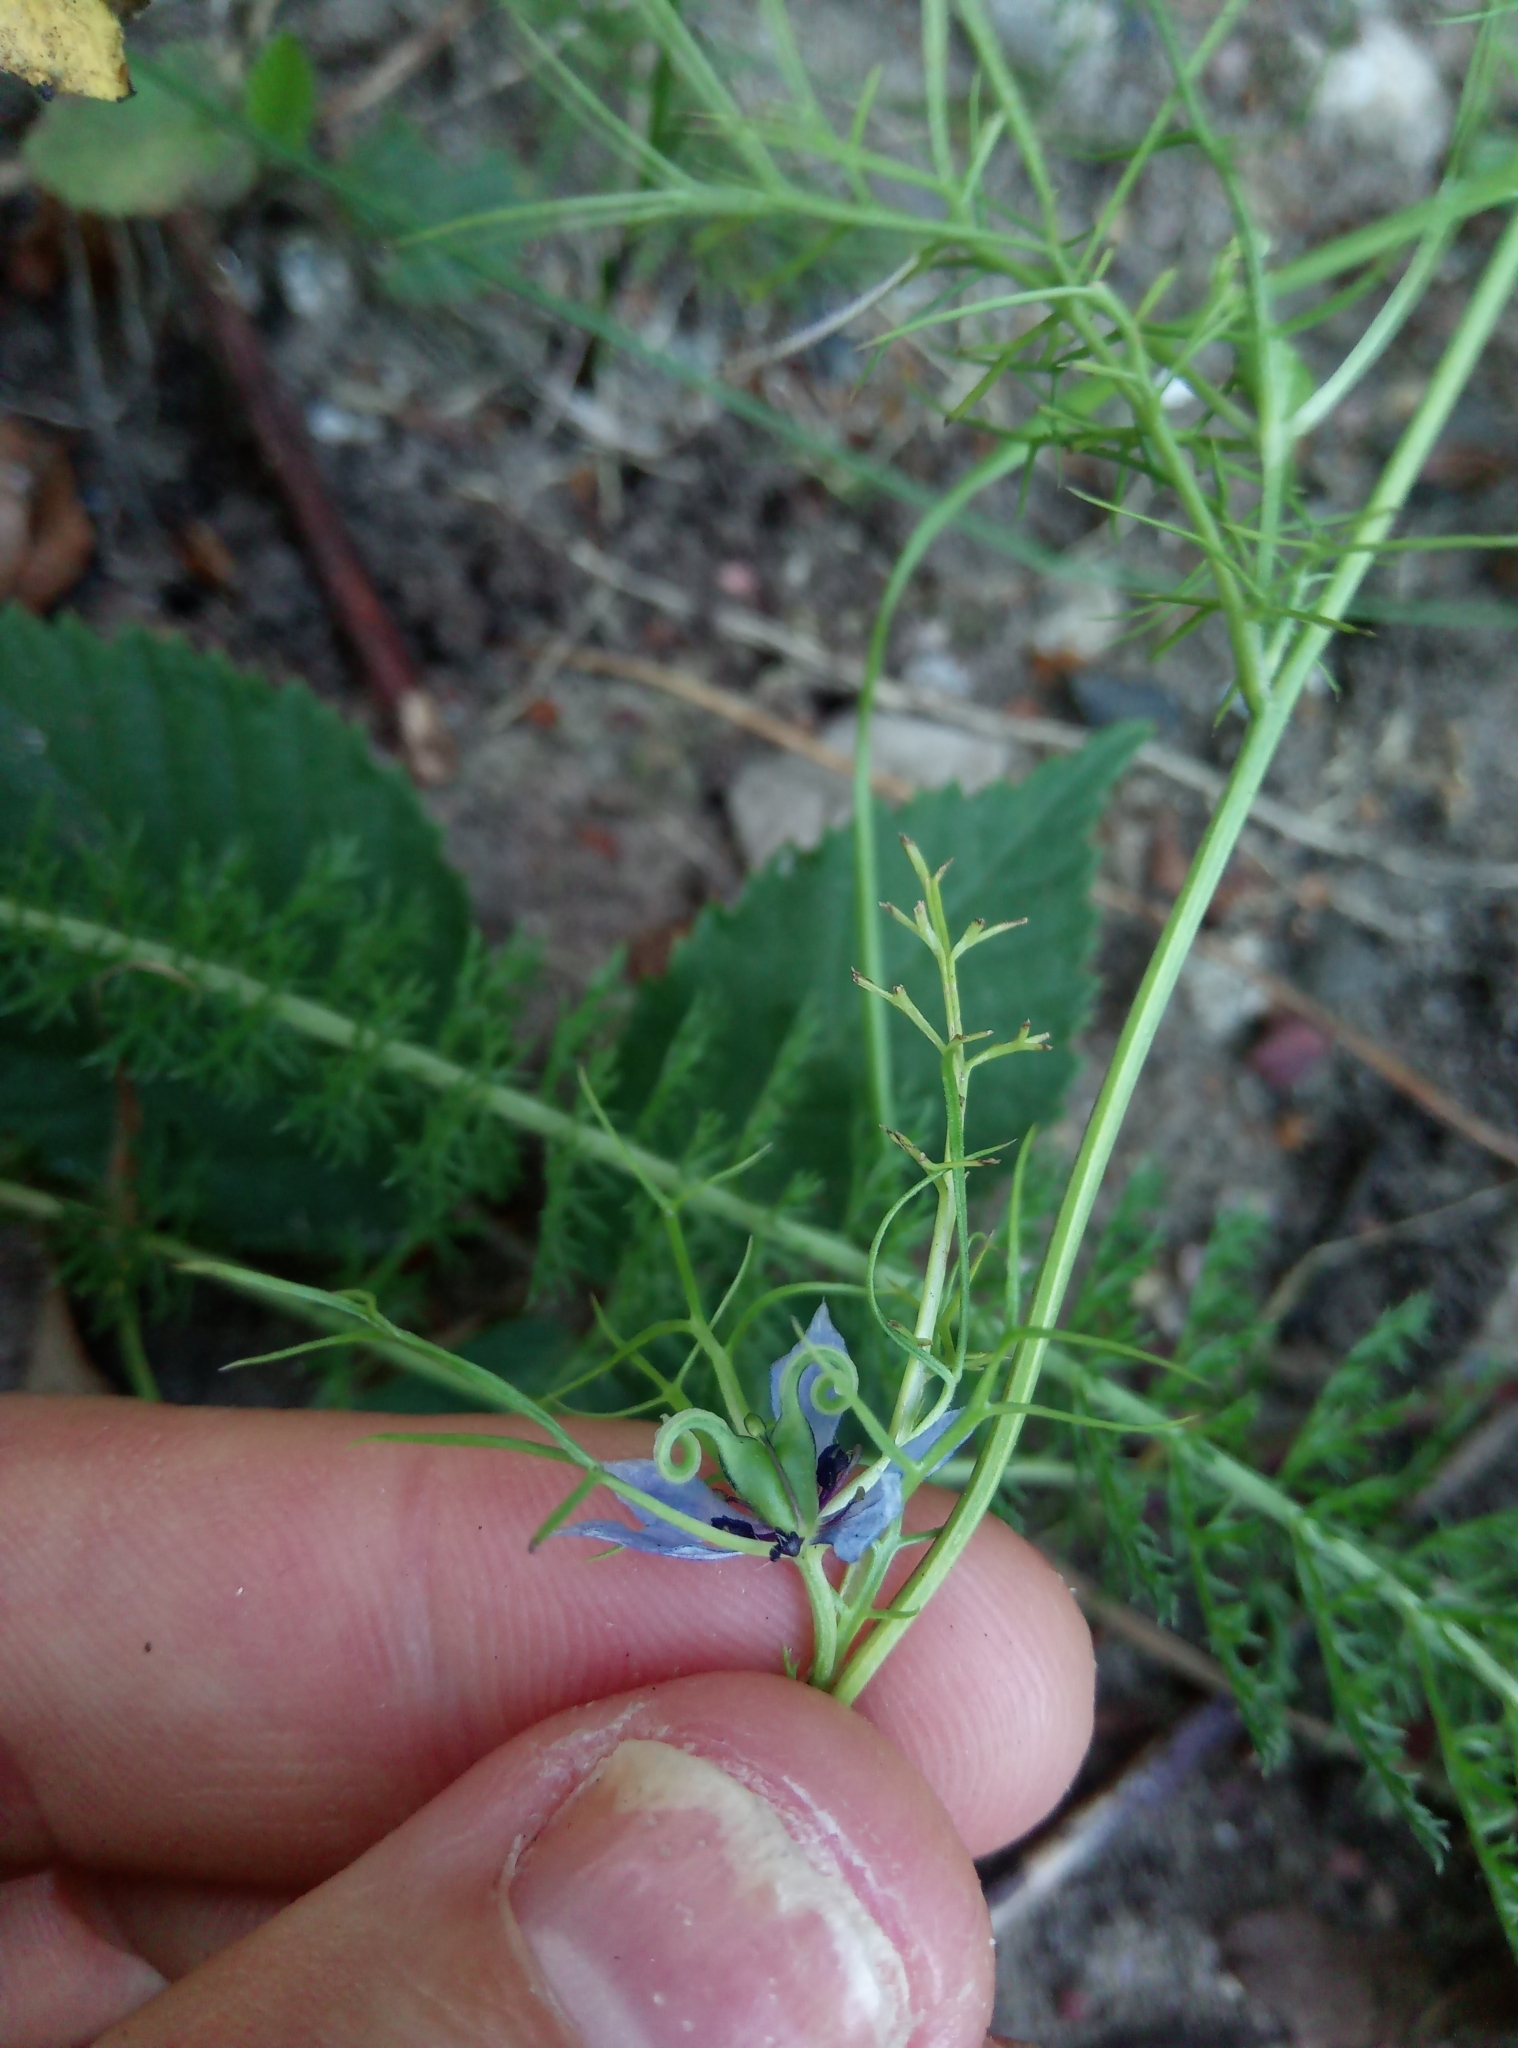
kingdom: Plantae
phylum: Tracheophyta
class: Magnoliopsida
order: Ranunculales
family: Ranunculaceae
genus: Nigella
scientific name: Nigella damascena
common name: Love-in-a-mist
